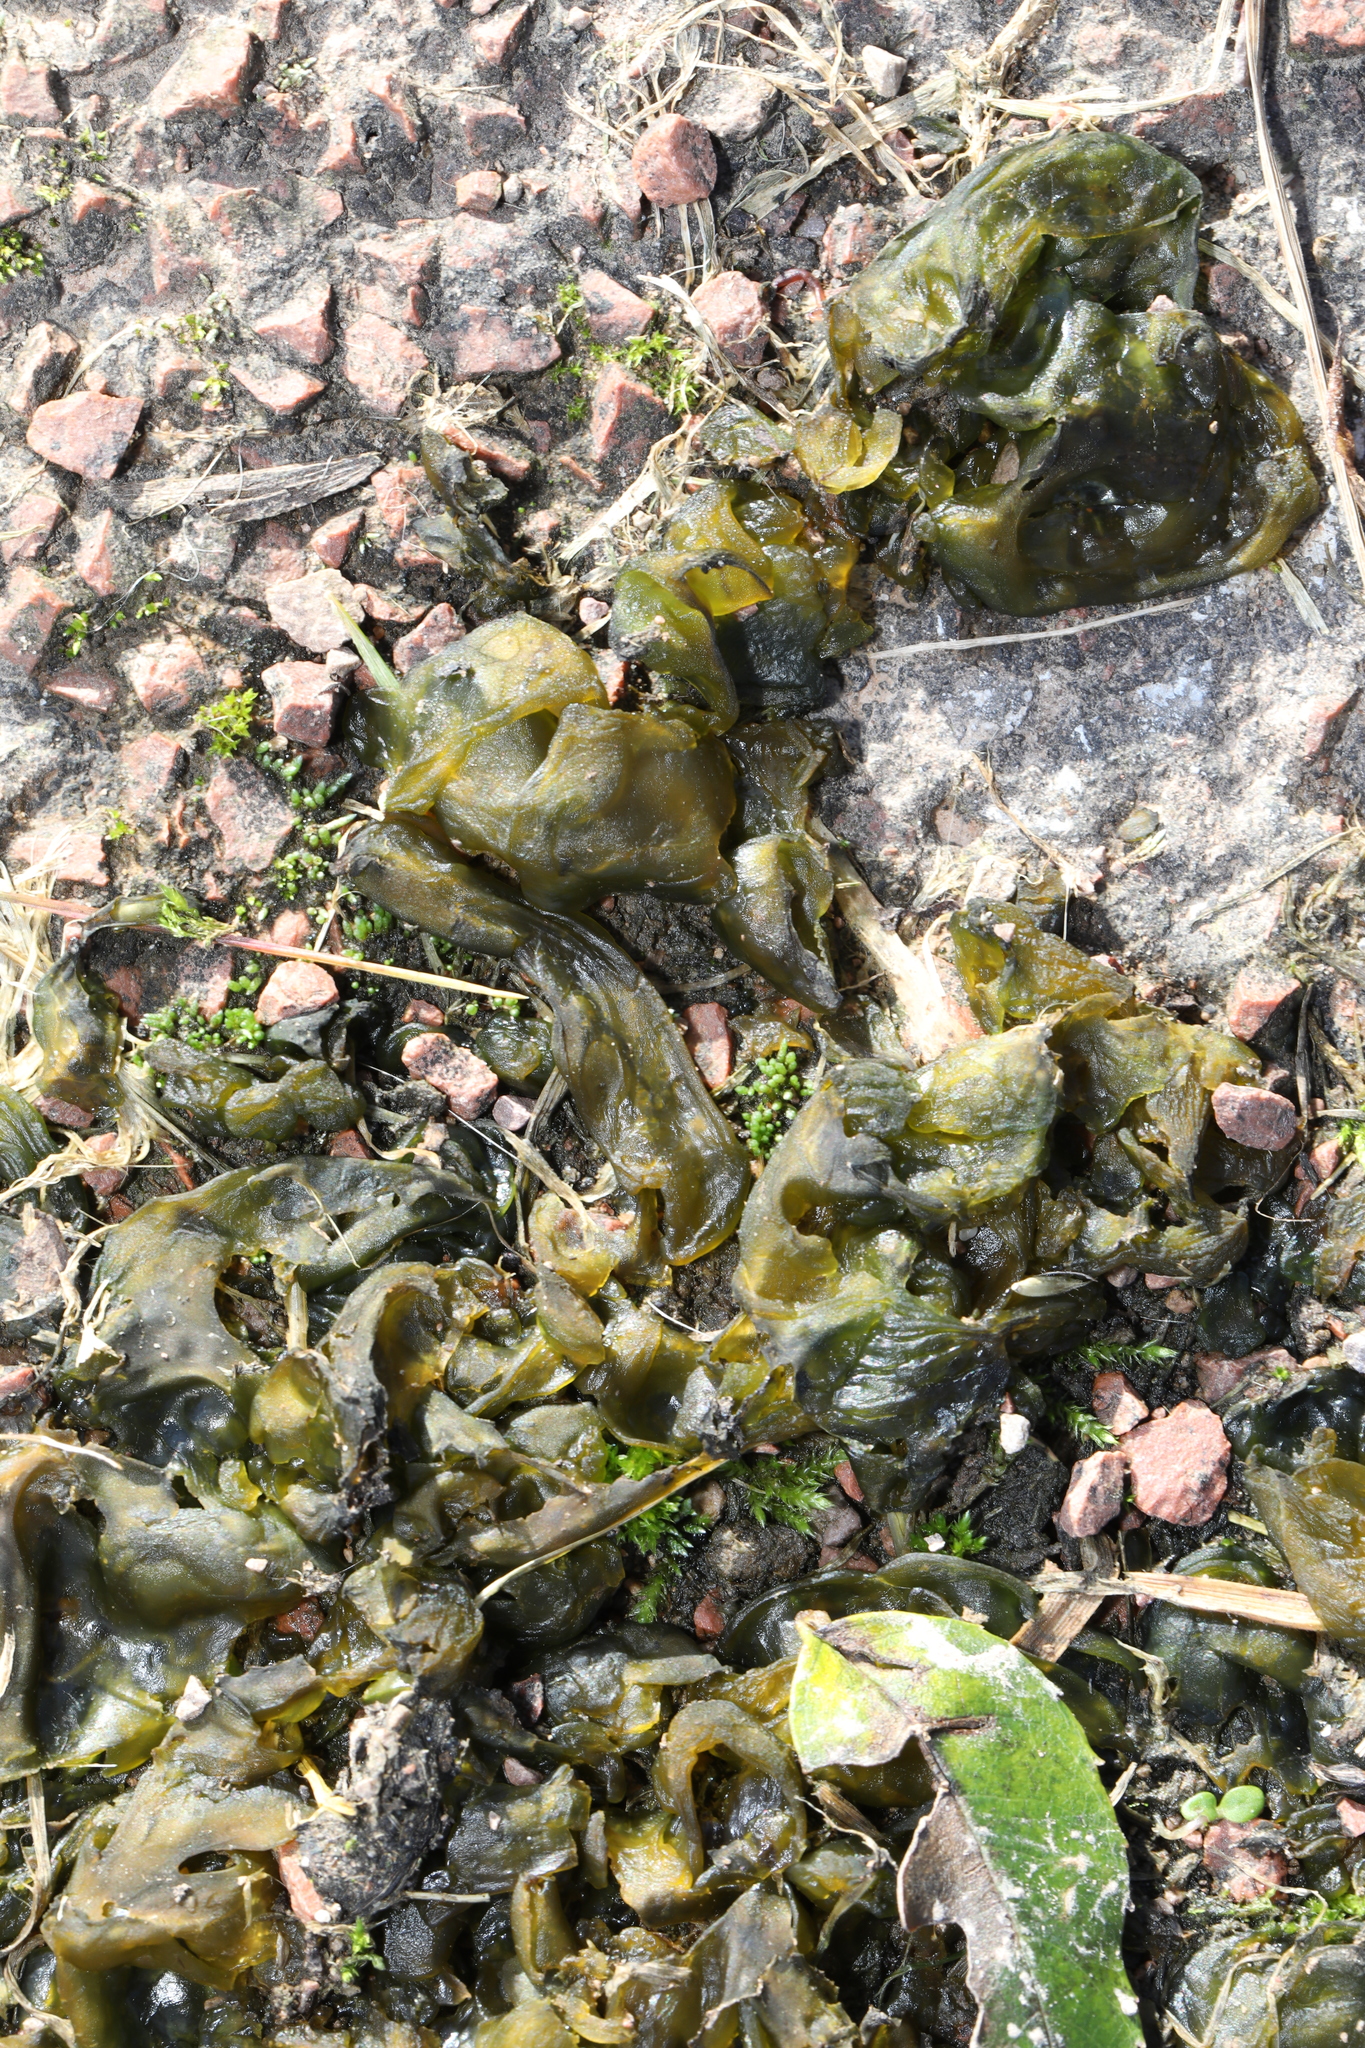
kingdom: Bacteria
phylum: Cyanobacteria
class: Cyanobacteriia
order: Cyanobacteriales
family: Nostocaceae
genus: Nostoc
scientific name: Nostoc commune
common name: Star jelly
